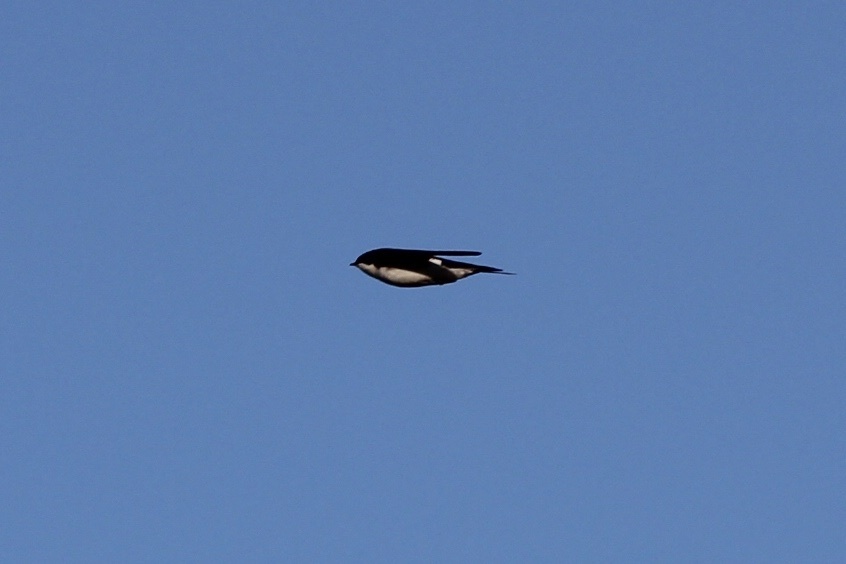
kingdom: Animalia
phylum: Chordata
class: Aves
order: Passeriformes
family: Hirundinidae
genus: Tachycineta
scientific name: Tachycineta bicolor
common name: Tree swallow
